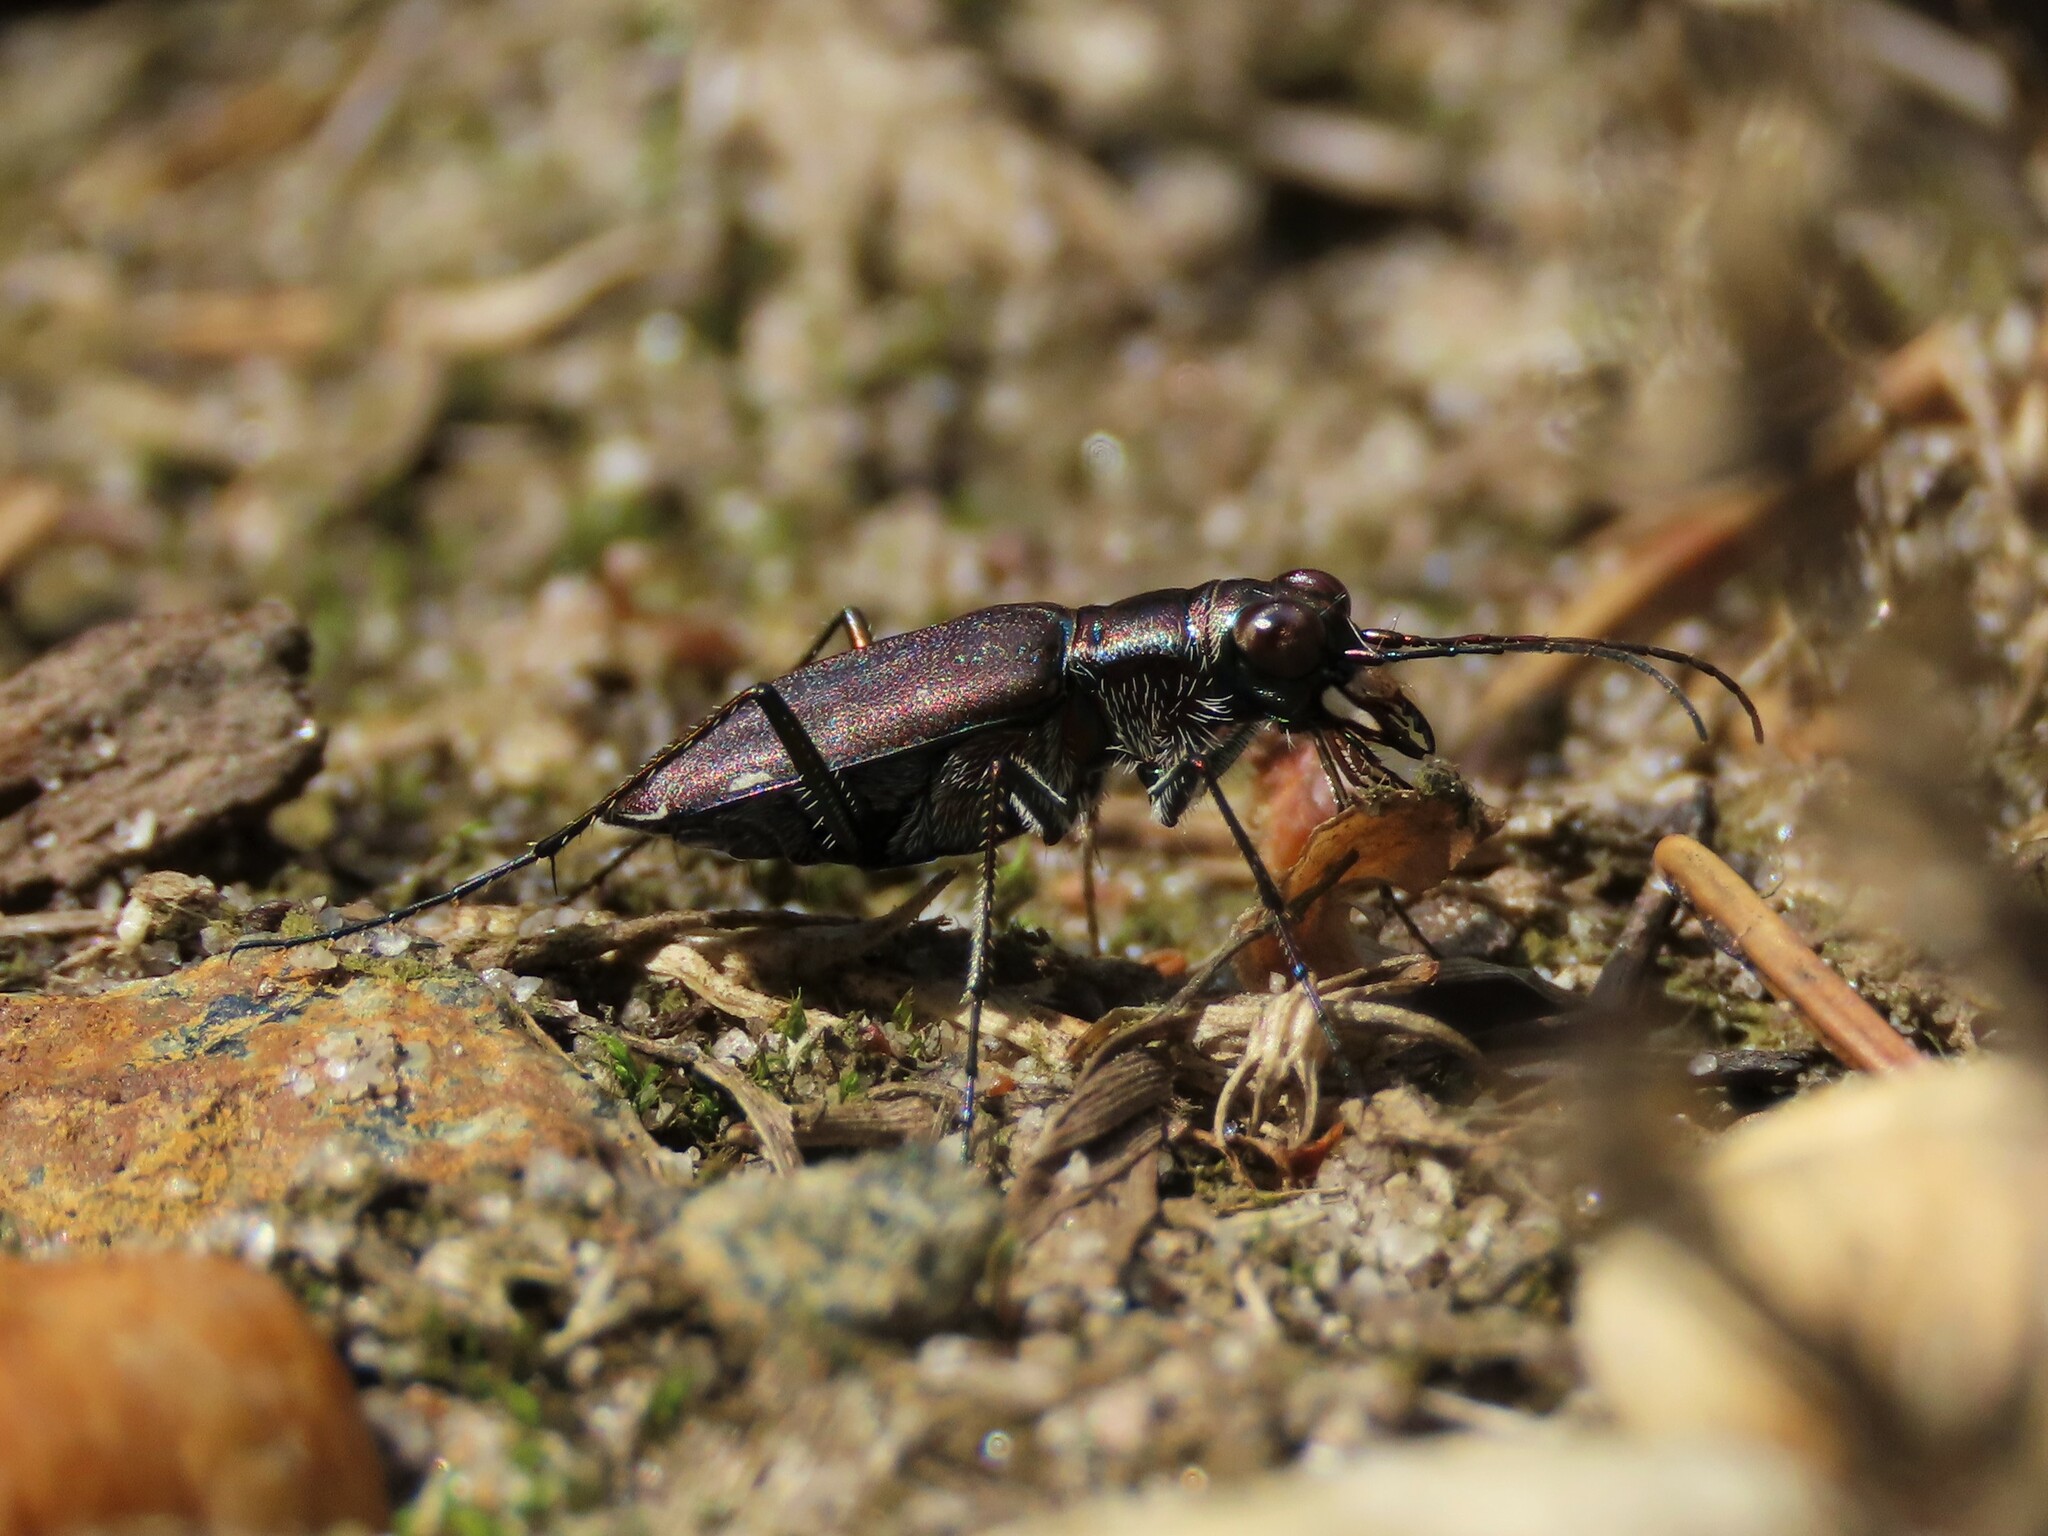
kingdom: Animalia
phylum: Arthropoda
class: Insecta
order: Coleoptera
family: Carabidae
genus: Cicindela
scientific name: Cicindela punctulata
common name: Punctured tiger beetle
